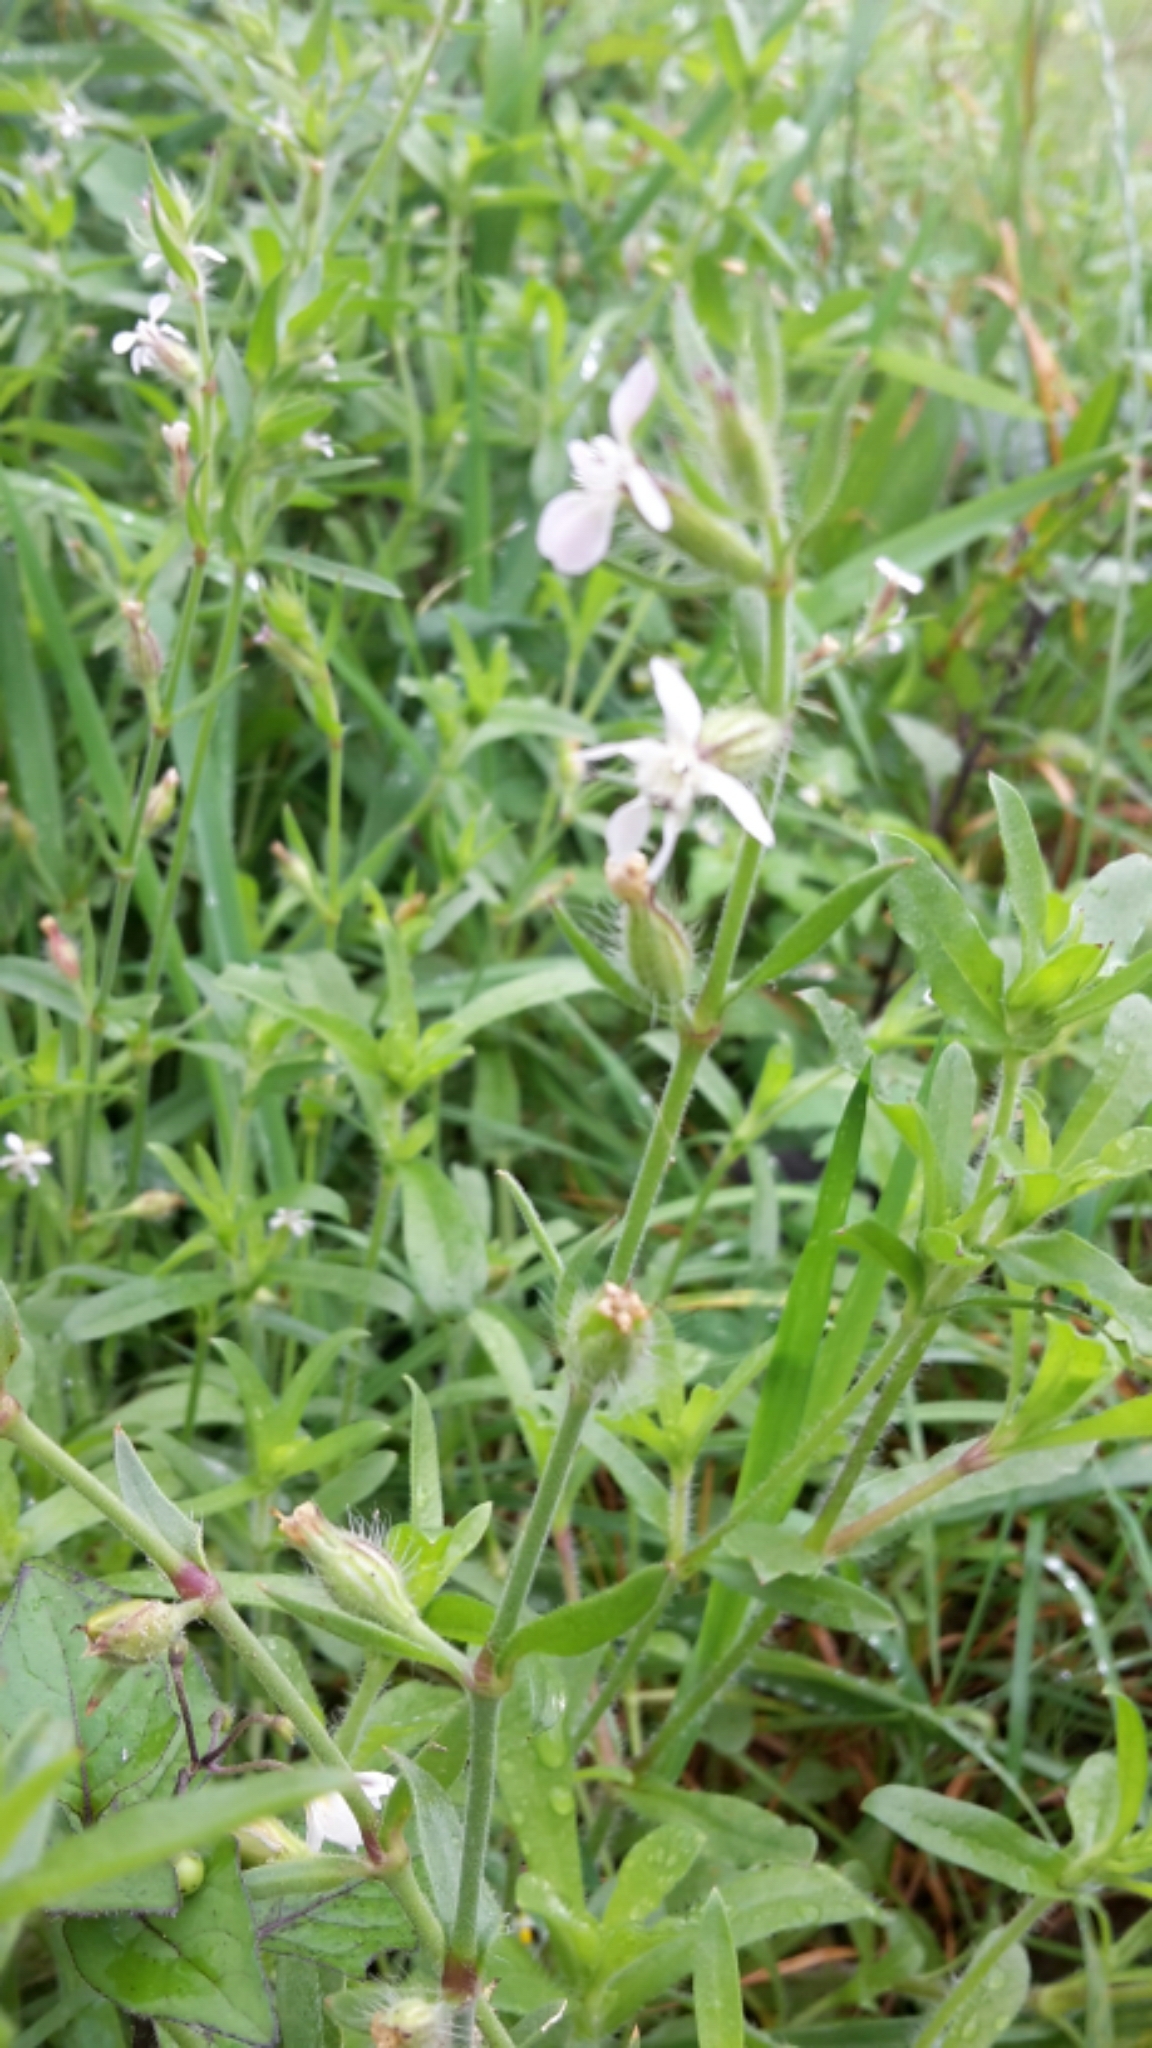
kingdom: Plantae
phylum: Tracheophyta
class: Magnoliopsida
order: Caryophyllales
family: Caryophyllaceae
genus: Silene
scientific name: Silene gallica
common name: Small-flowered catchfly
